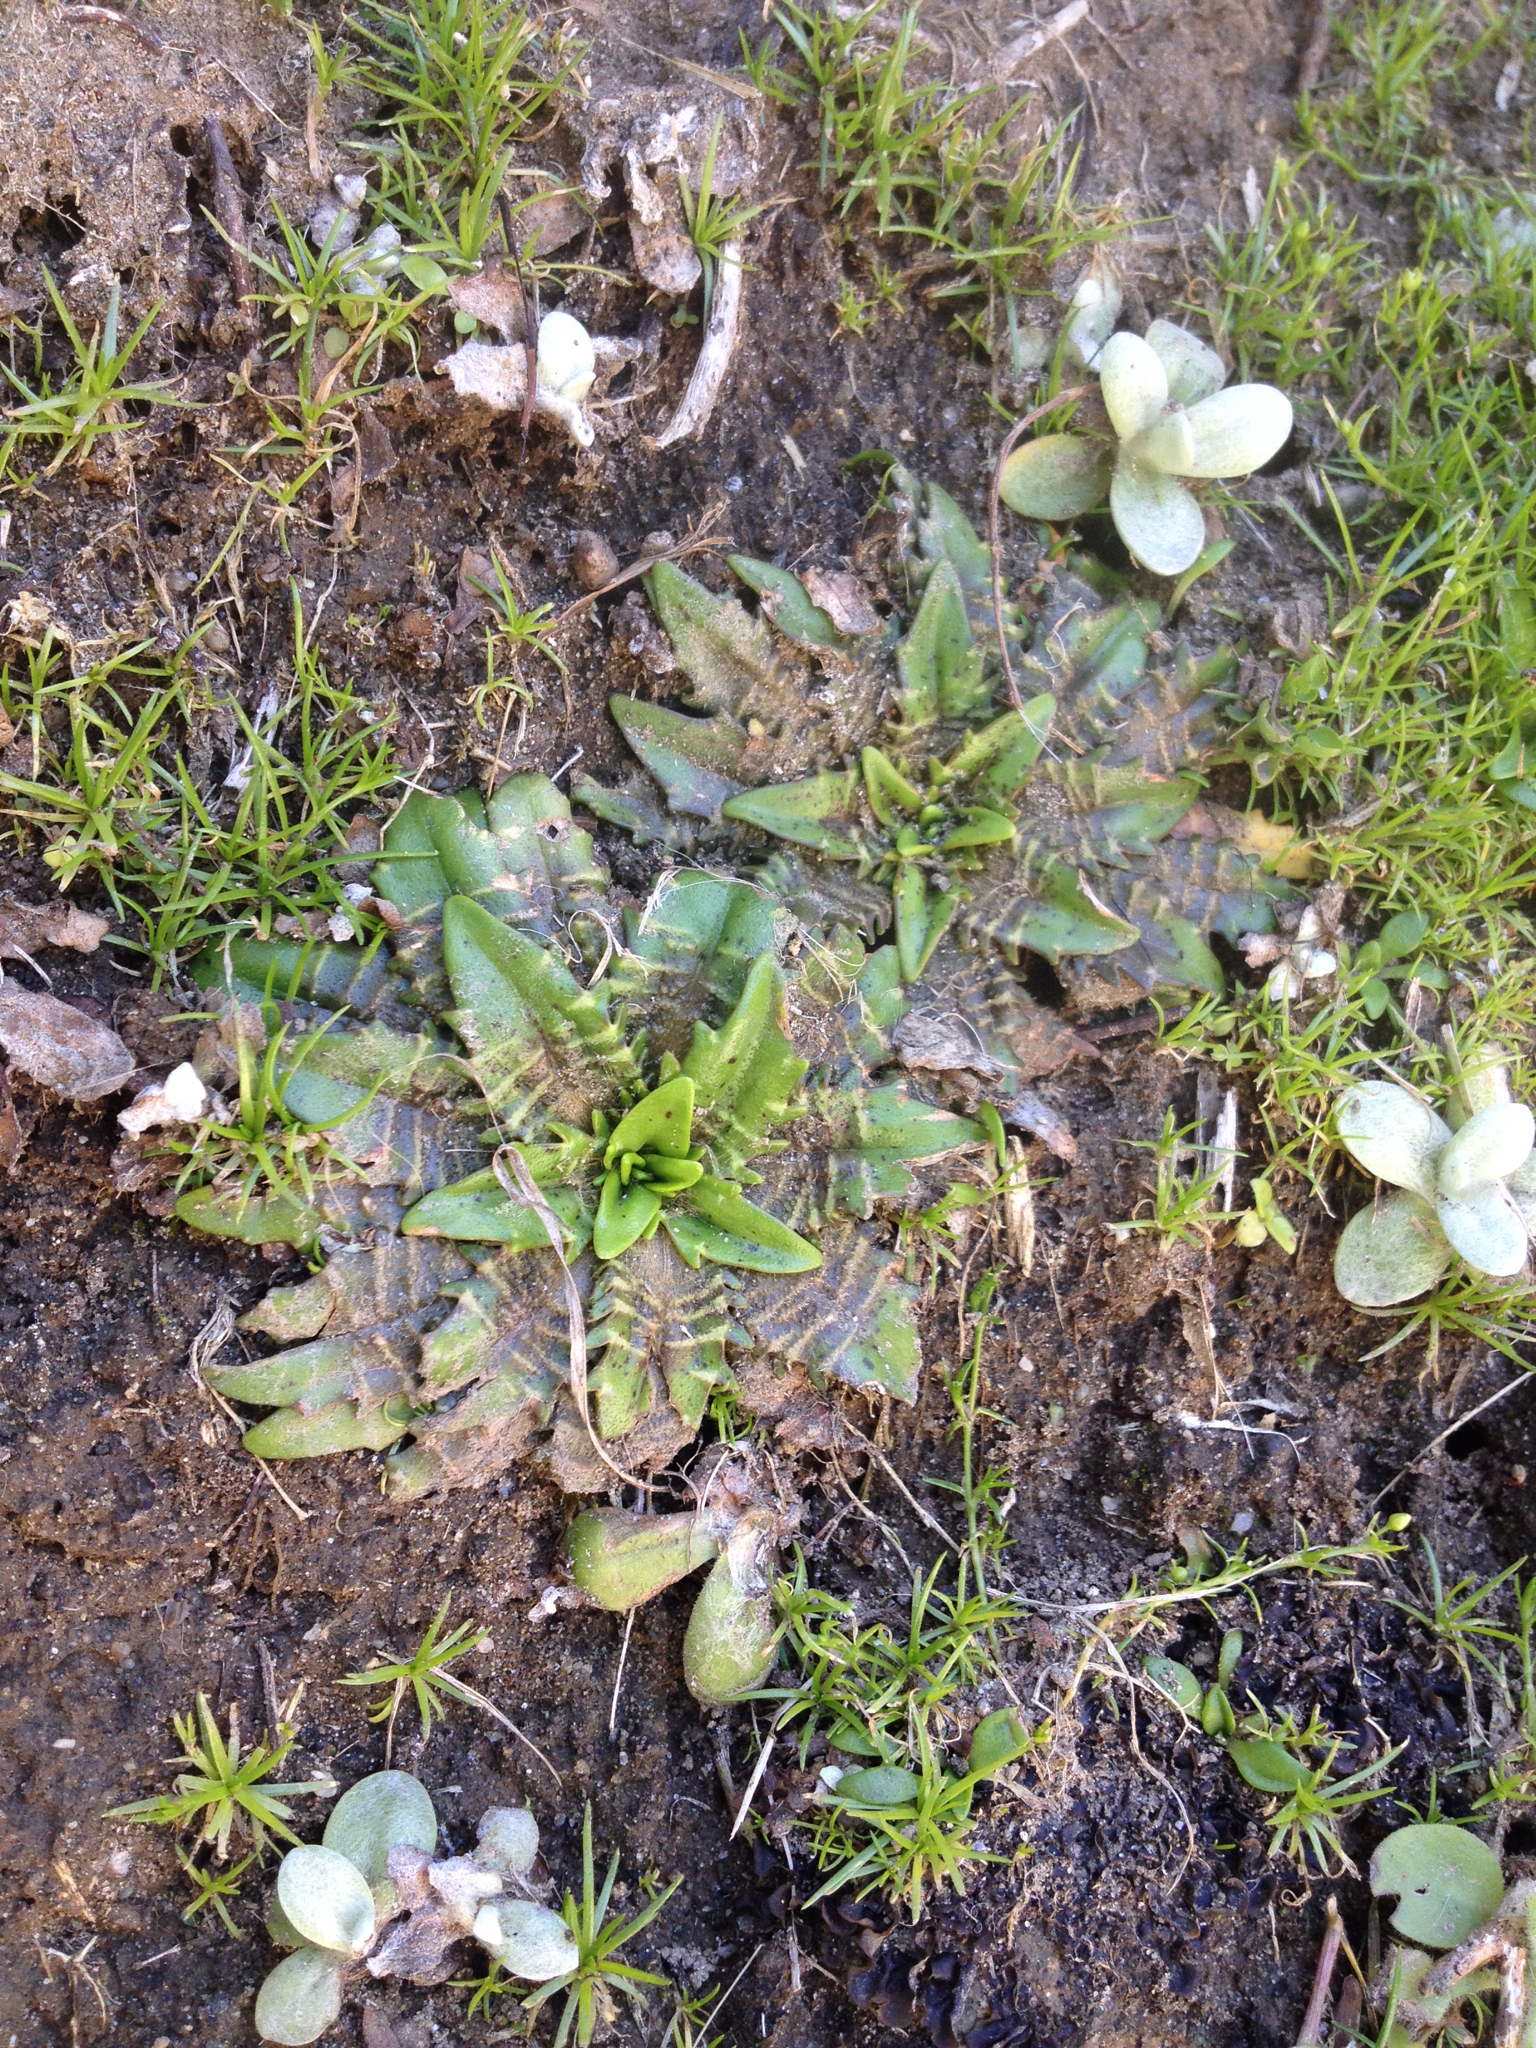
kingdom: Plantae
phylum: Tracheophyta
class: Magnoliopsida
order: Lamiales
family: Plantaginaceae
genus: Plantago
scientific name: Plantago triandra
